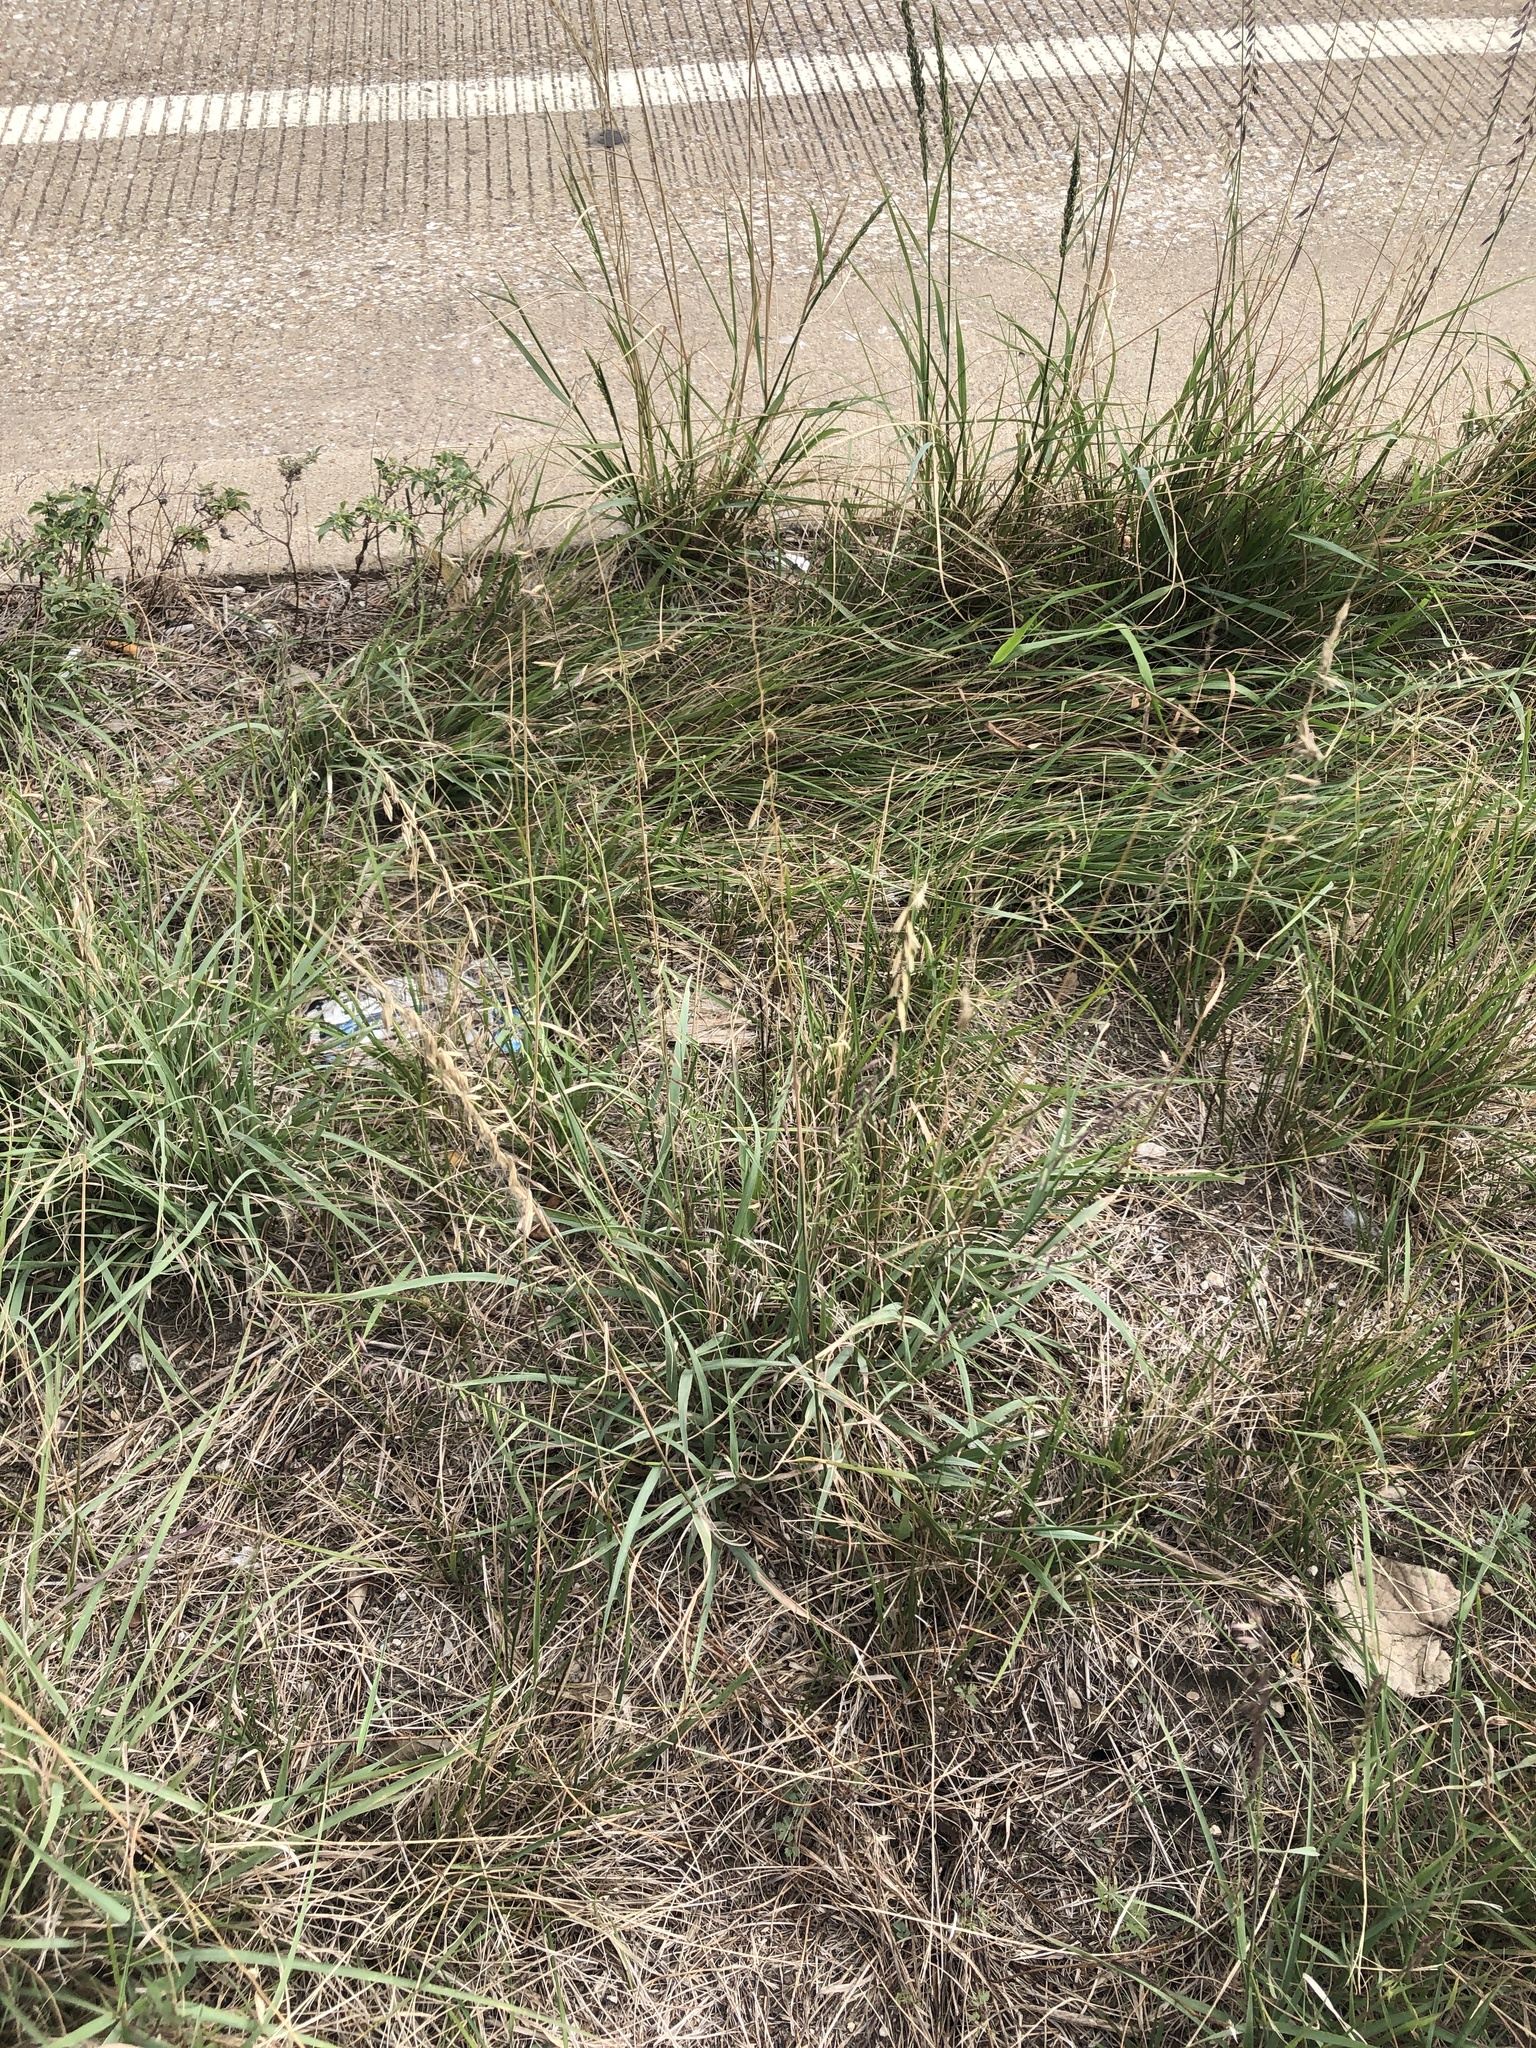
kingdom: Plantae
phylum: Tracheophyta
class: Liliopsida
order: Poales
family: Poaceae
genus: Bouteloua
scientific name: Bouteloua curtipendula
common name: Side-oats grama
